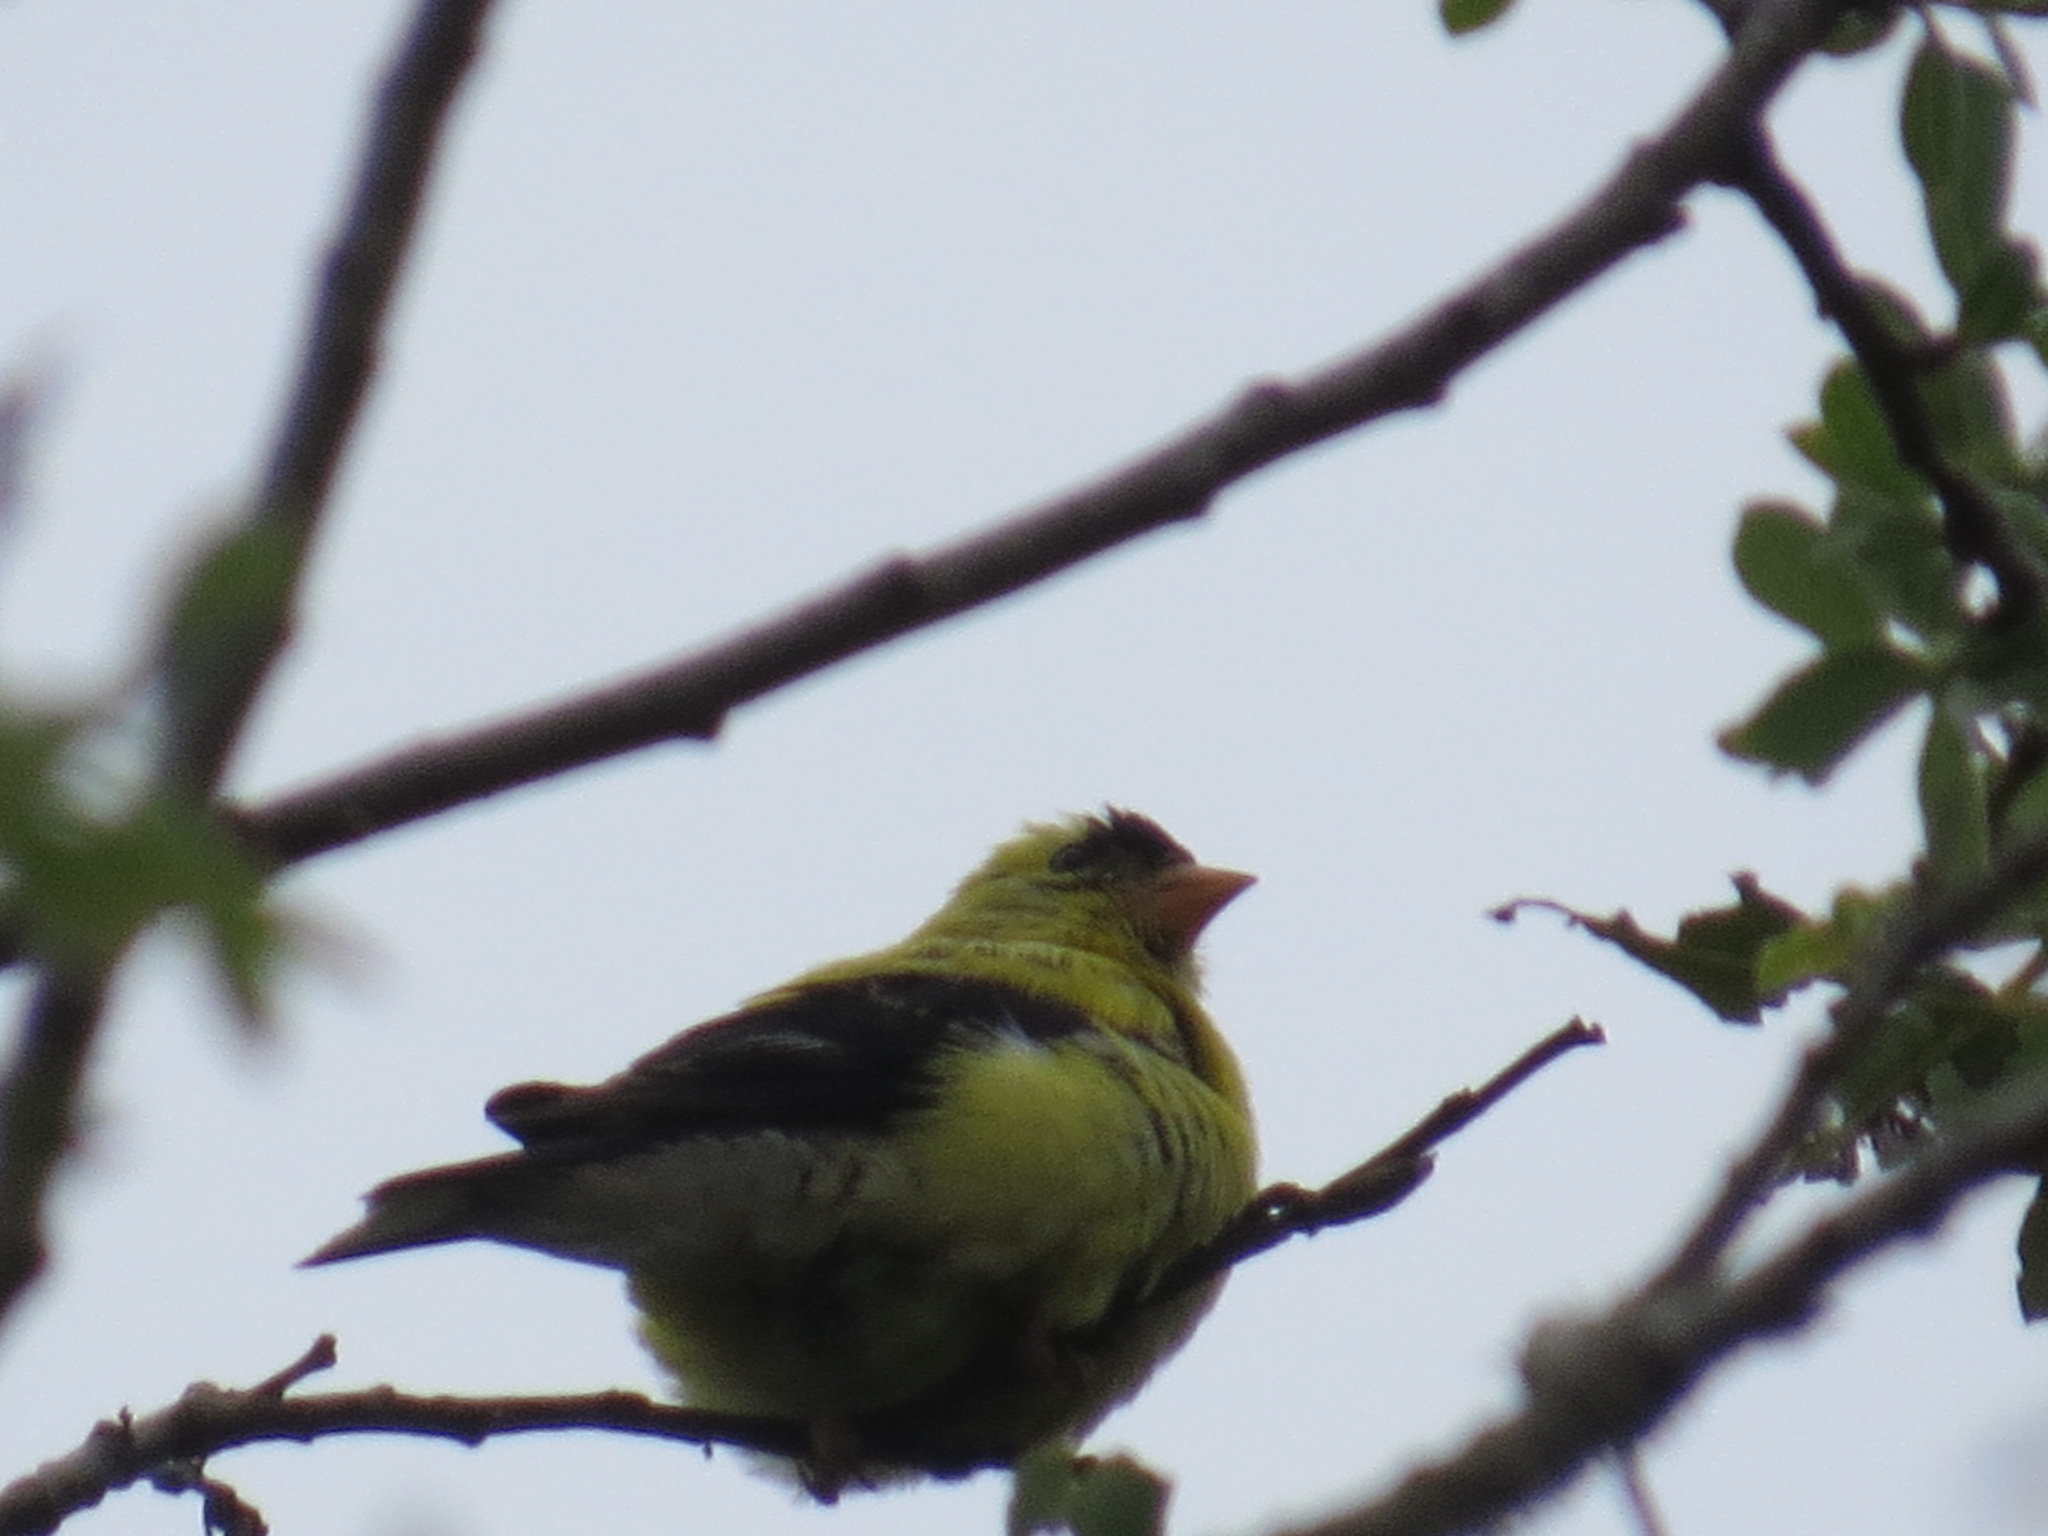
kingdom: Animalia
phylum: Chordata
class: Aves
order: Passeriformes
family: Fringillidae
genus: Spinus
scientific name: Spinus tristis
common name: American goldfinch
